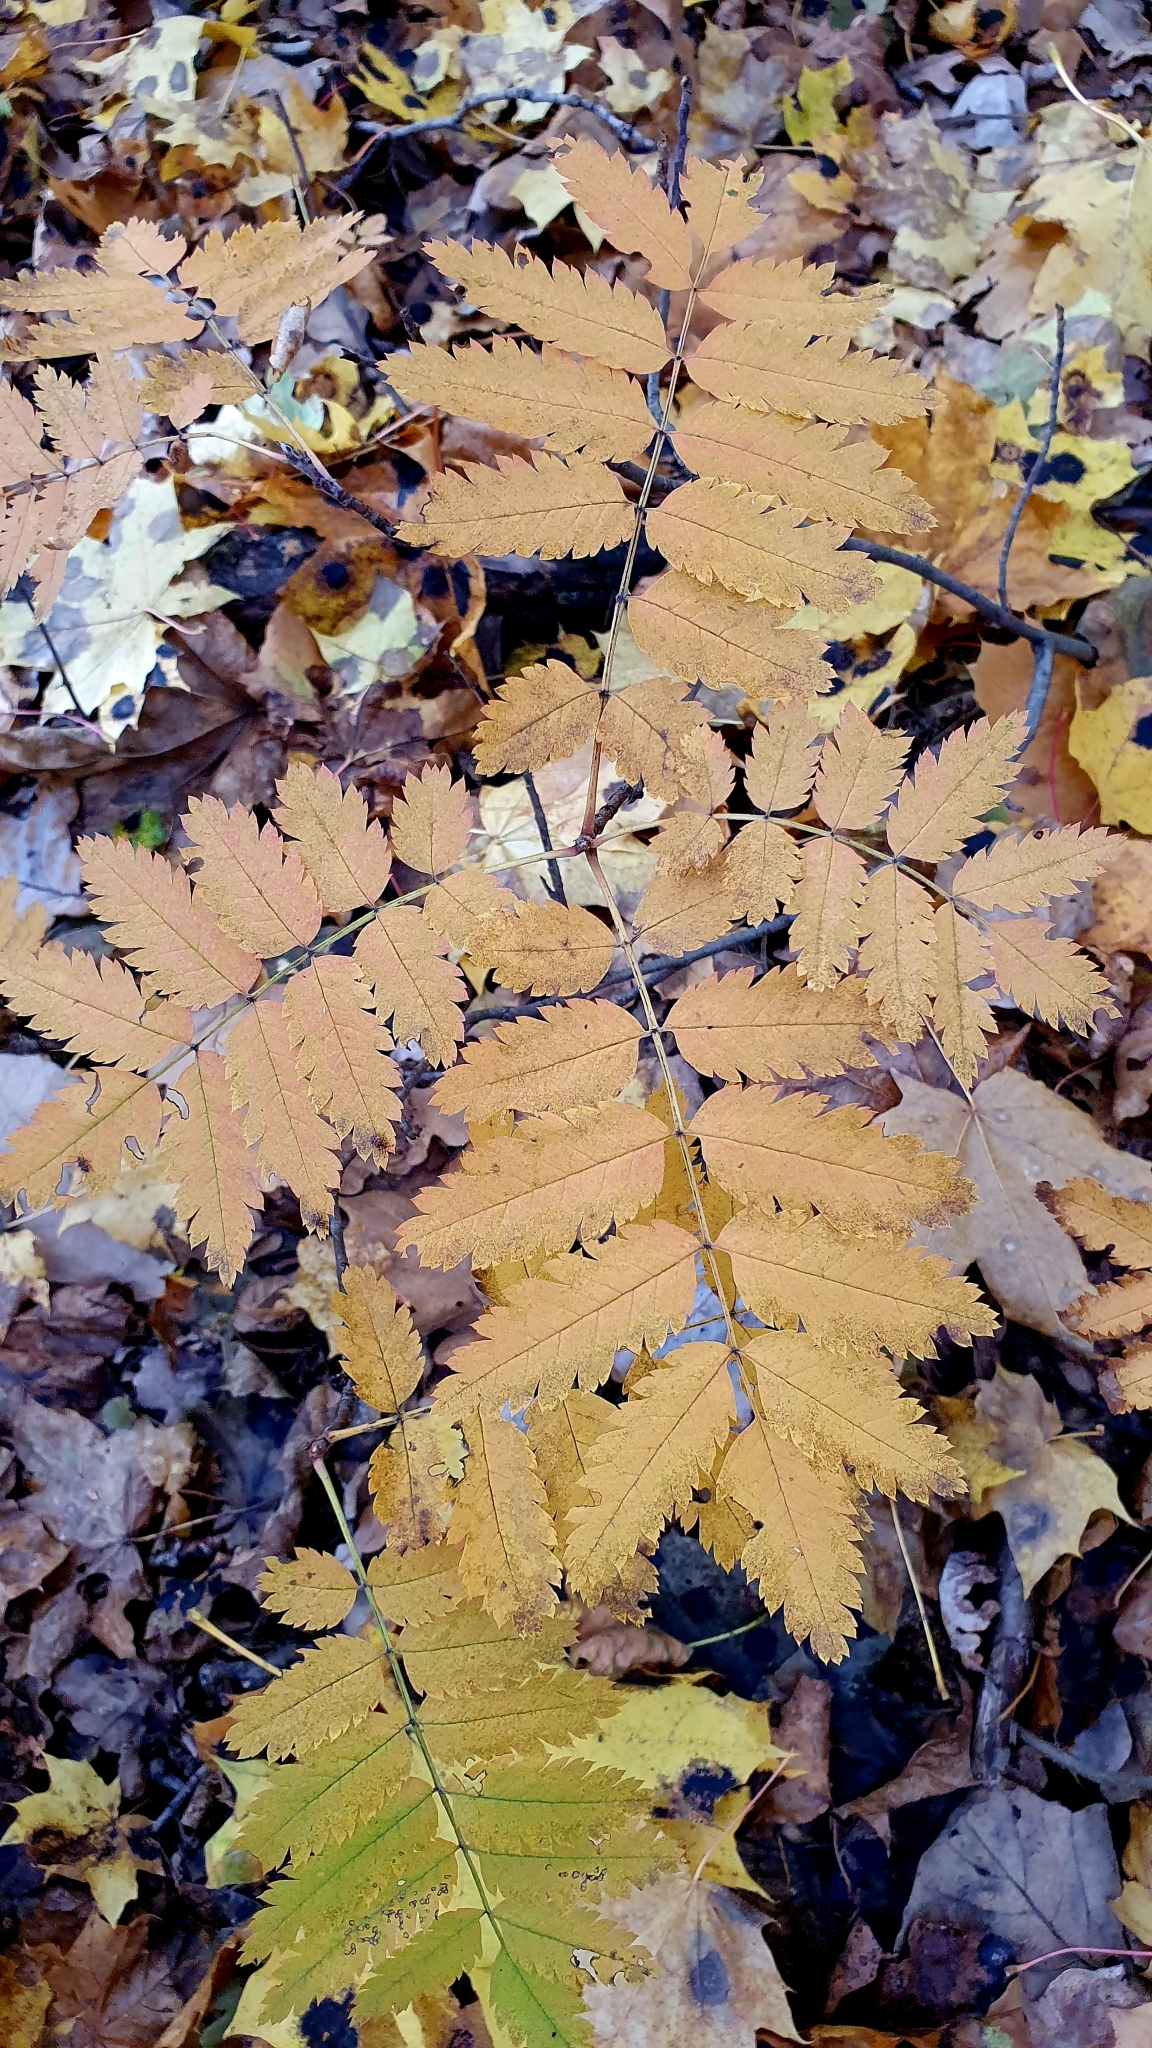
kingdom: Plantae
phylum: Tracheophyta
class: Magnoliopsida
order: Rosales
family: Rosaceae
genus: Sorbus
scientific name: Sorbus aucuparia
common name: Rowan
